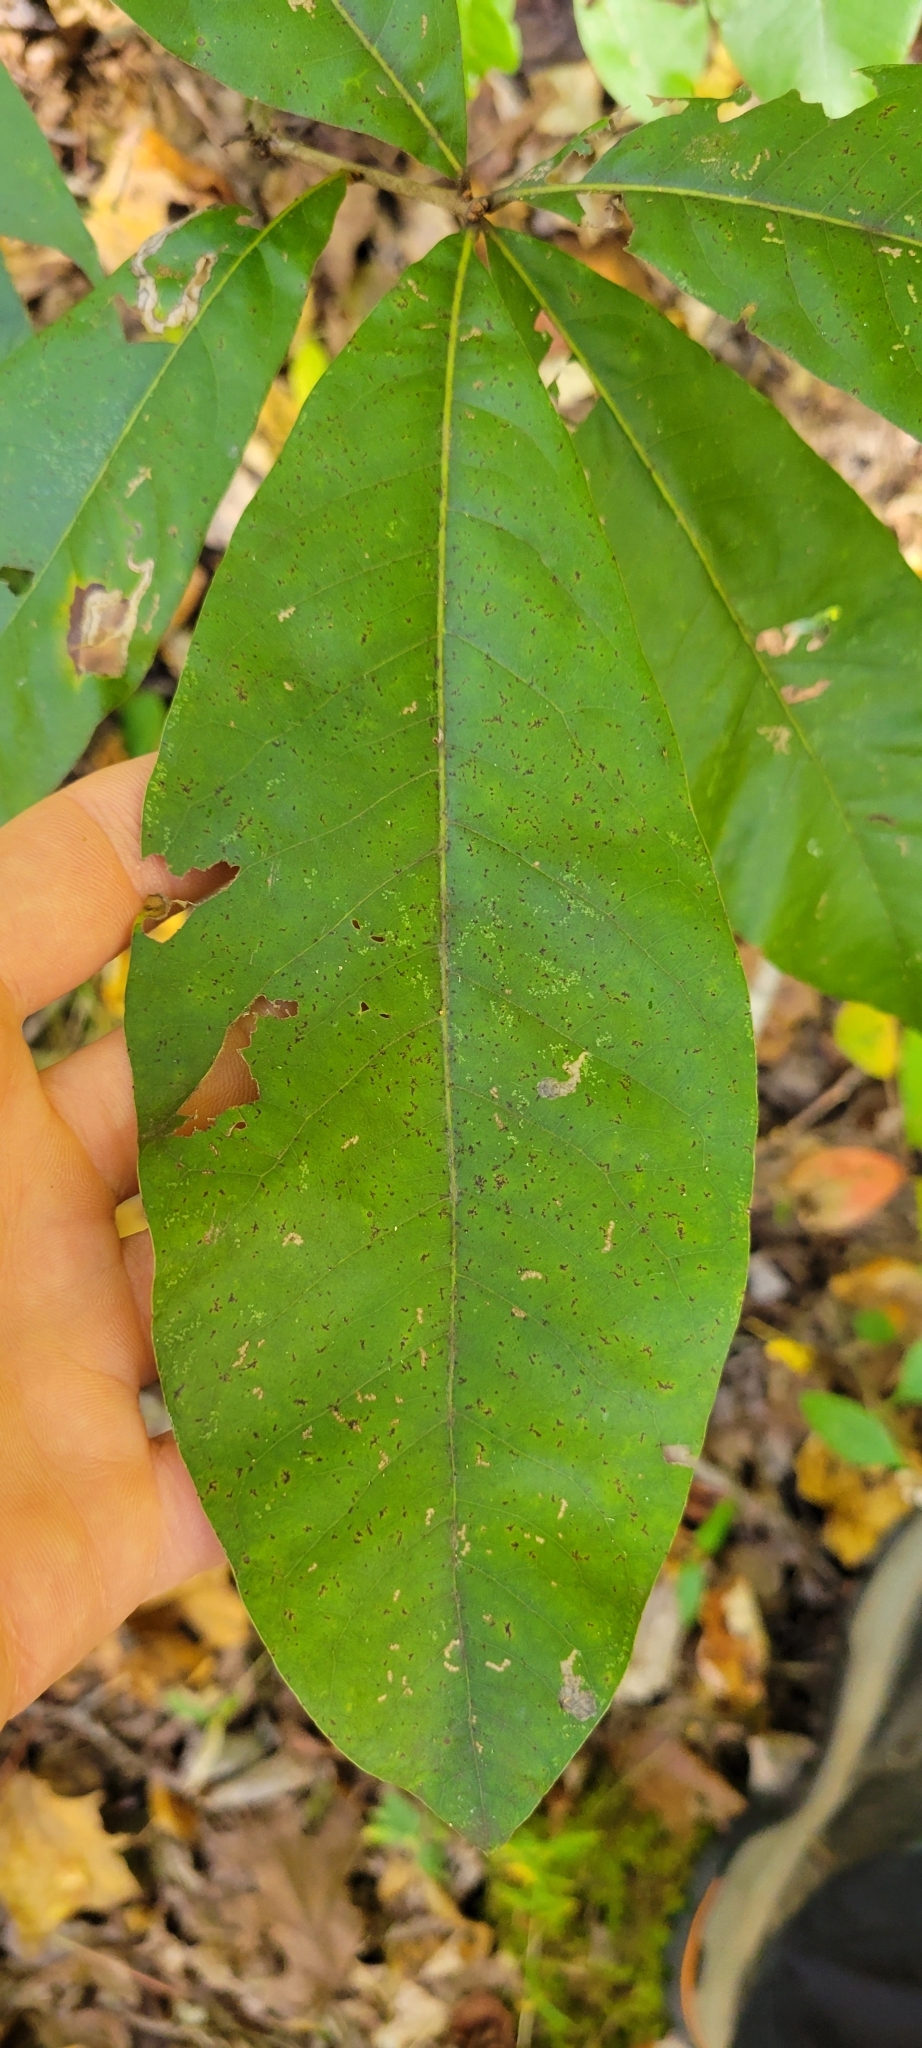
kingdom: Plantae
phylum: Tracheophyta
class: Magnoliopsida
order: Fagales
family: Fagaceae
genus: Quercus
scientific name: Quercus imbricaria
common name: Shingle oak
